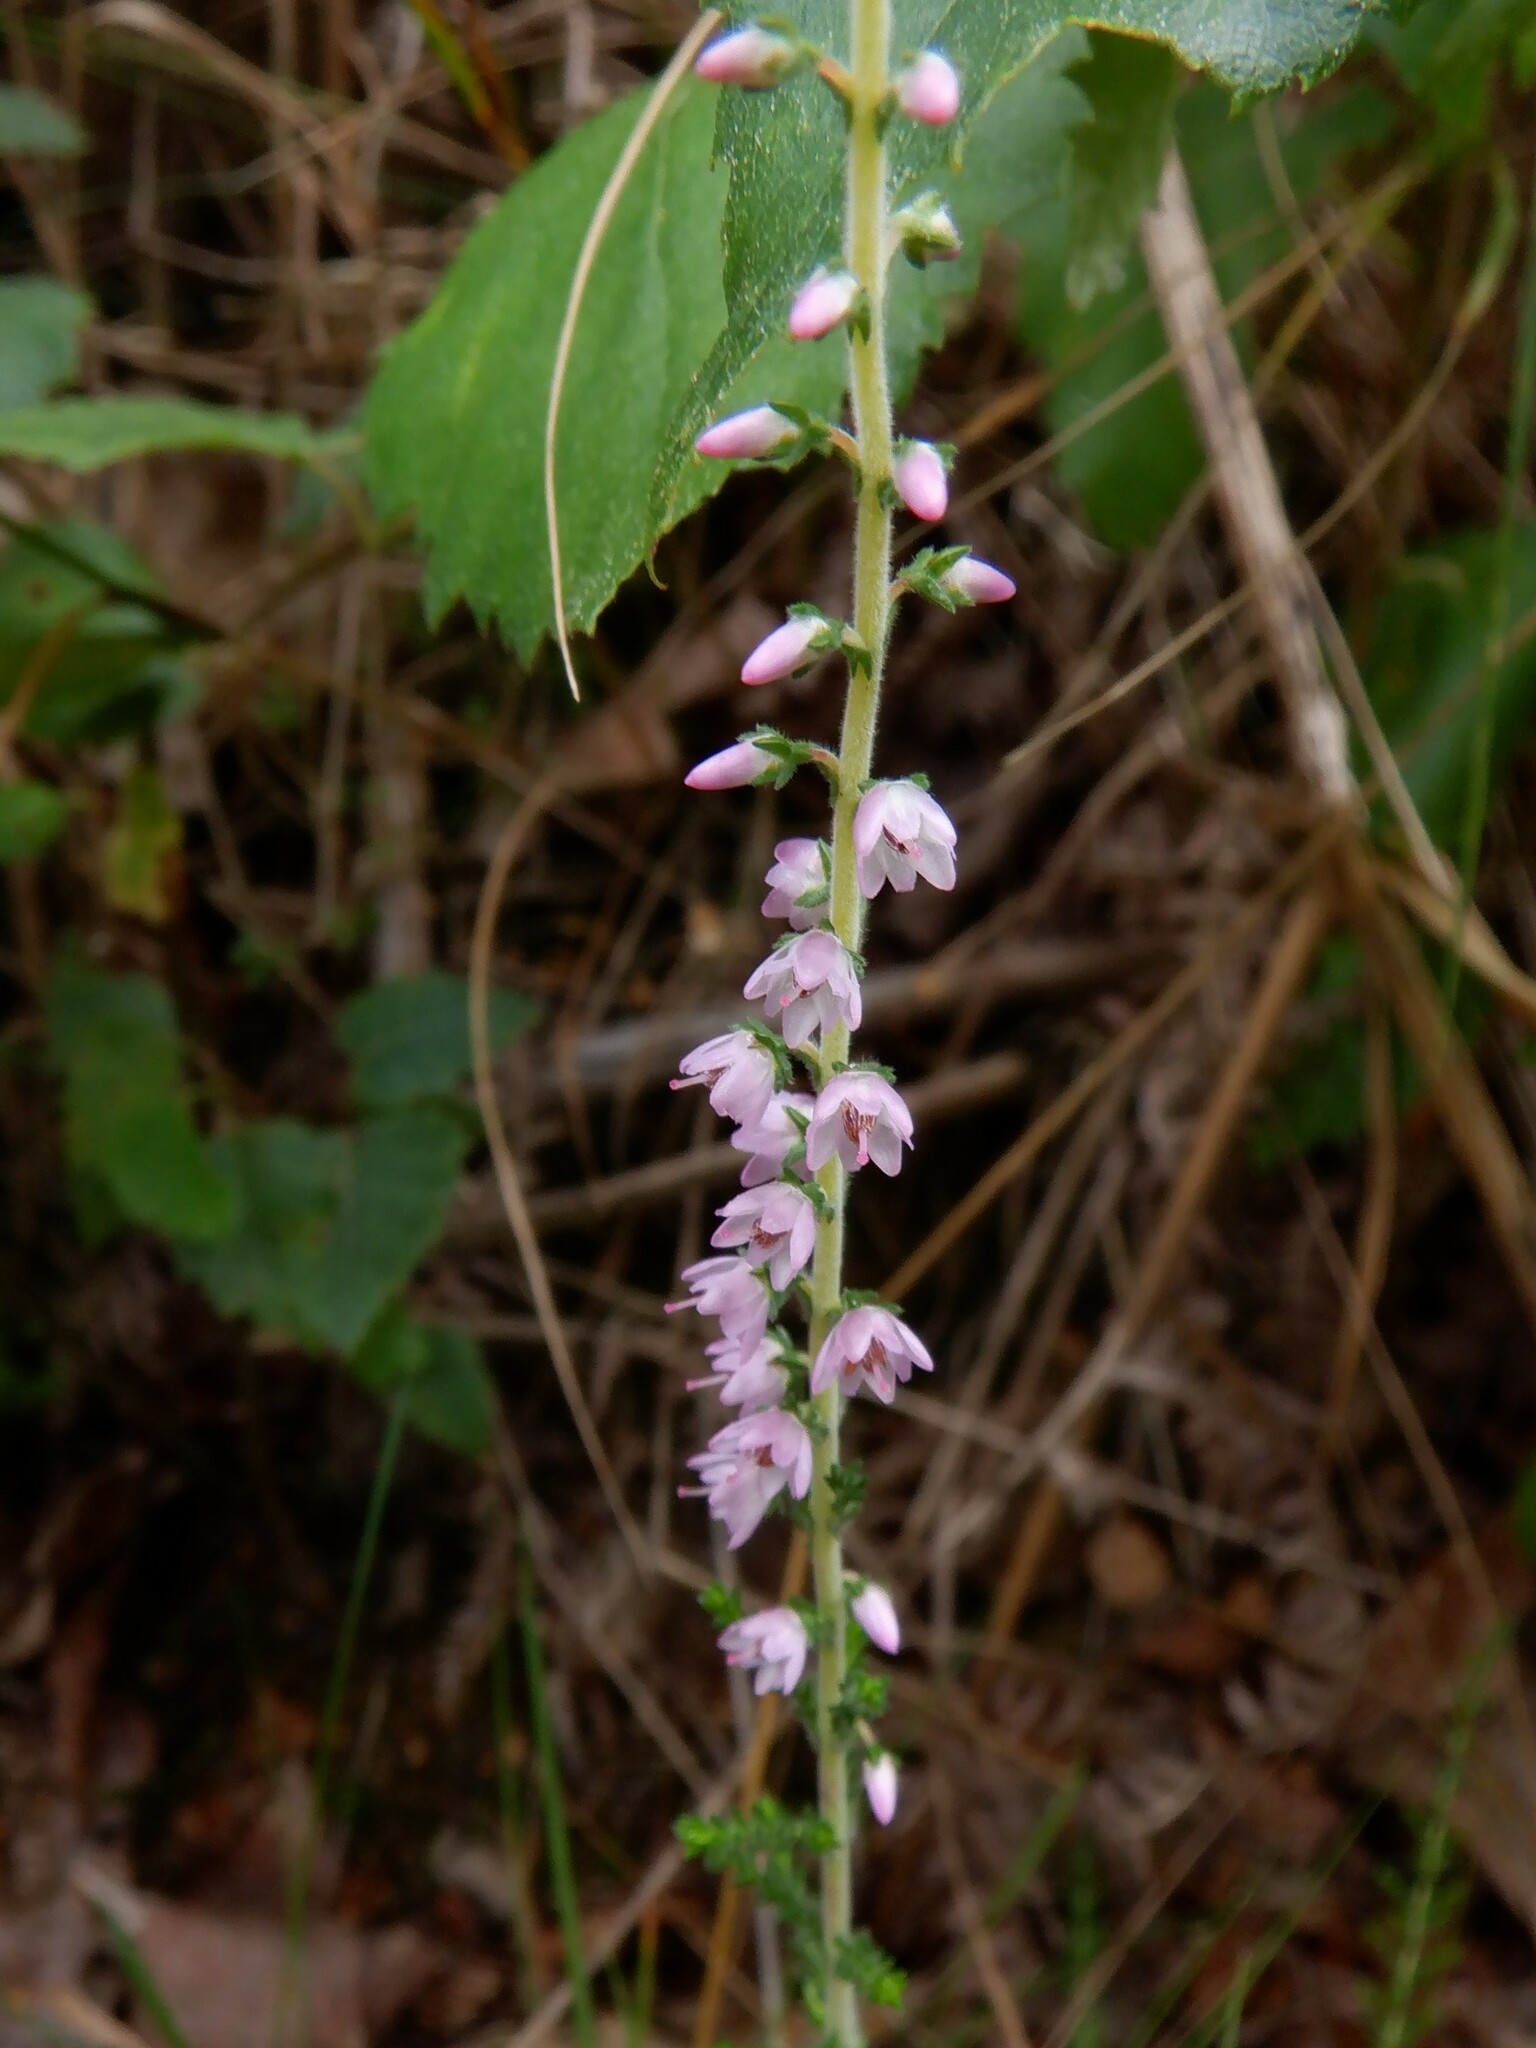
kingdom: Plantae
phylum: Tracheophyta
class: Magnoliopsida
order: Ericales
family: Ericaceae
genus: Calluna
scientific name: Calluna vulgaris
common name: Heather
